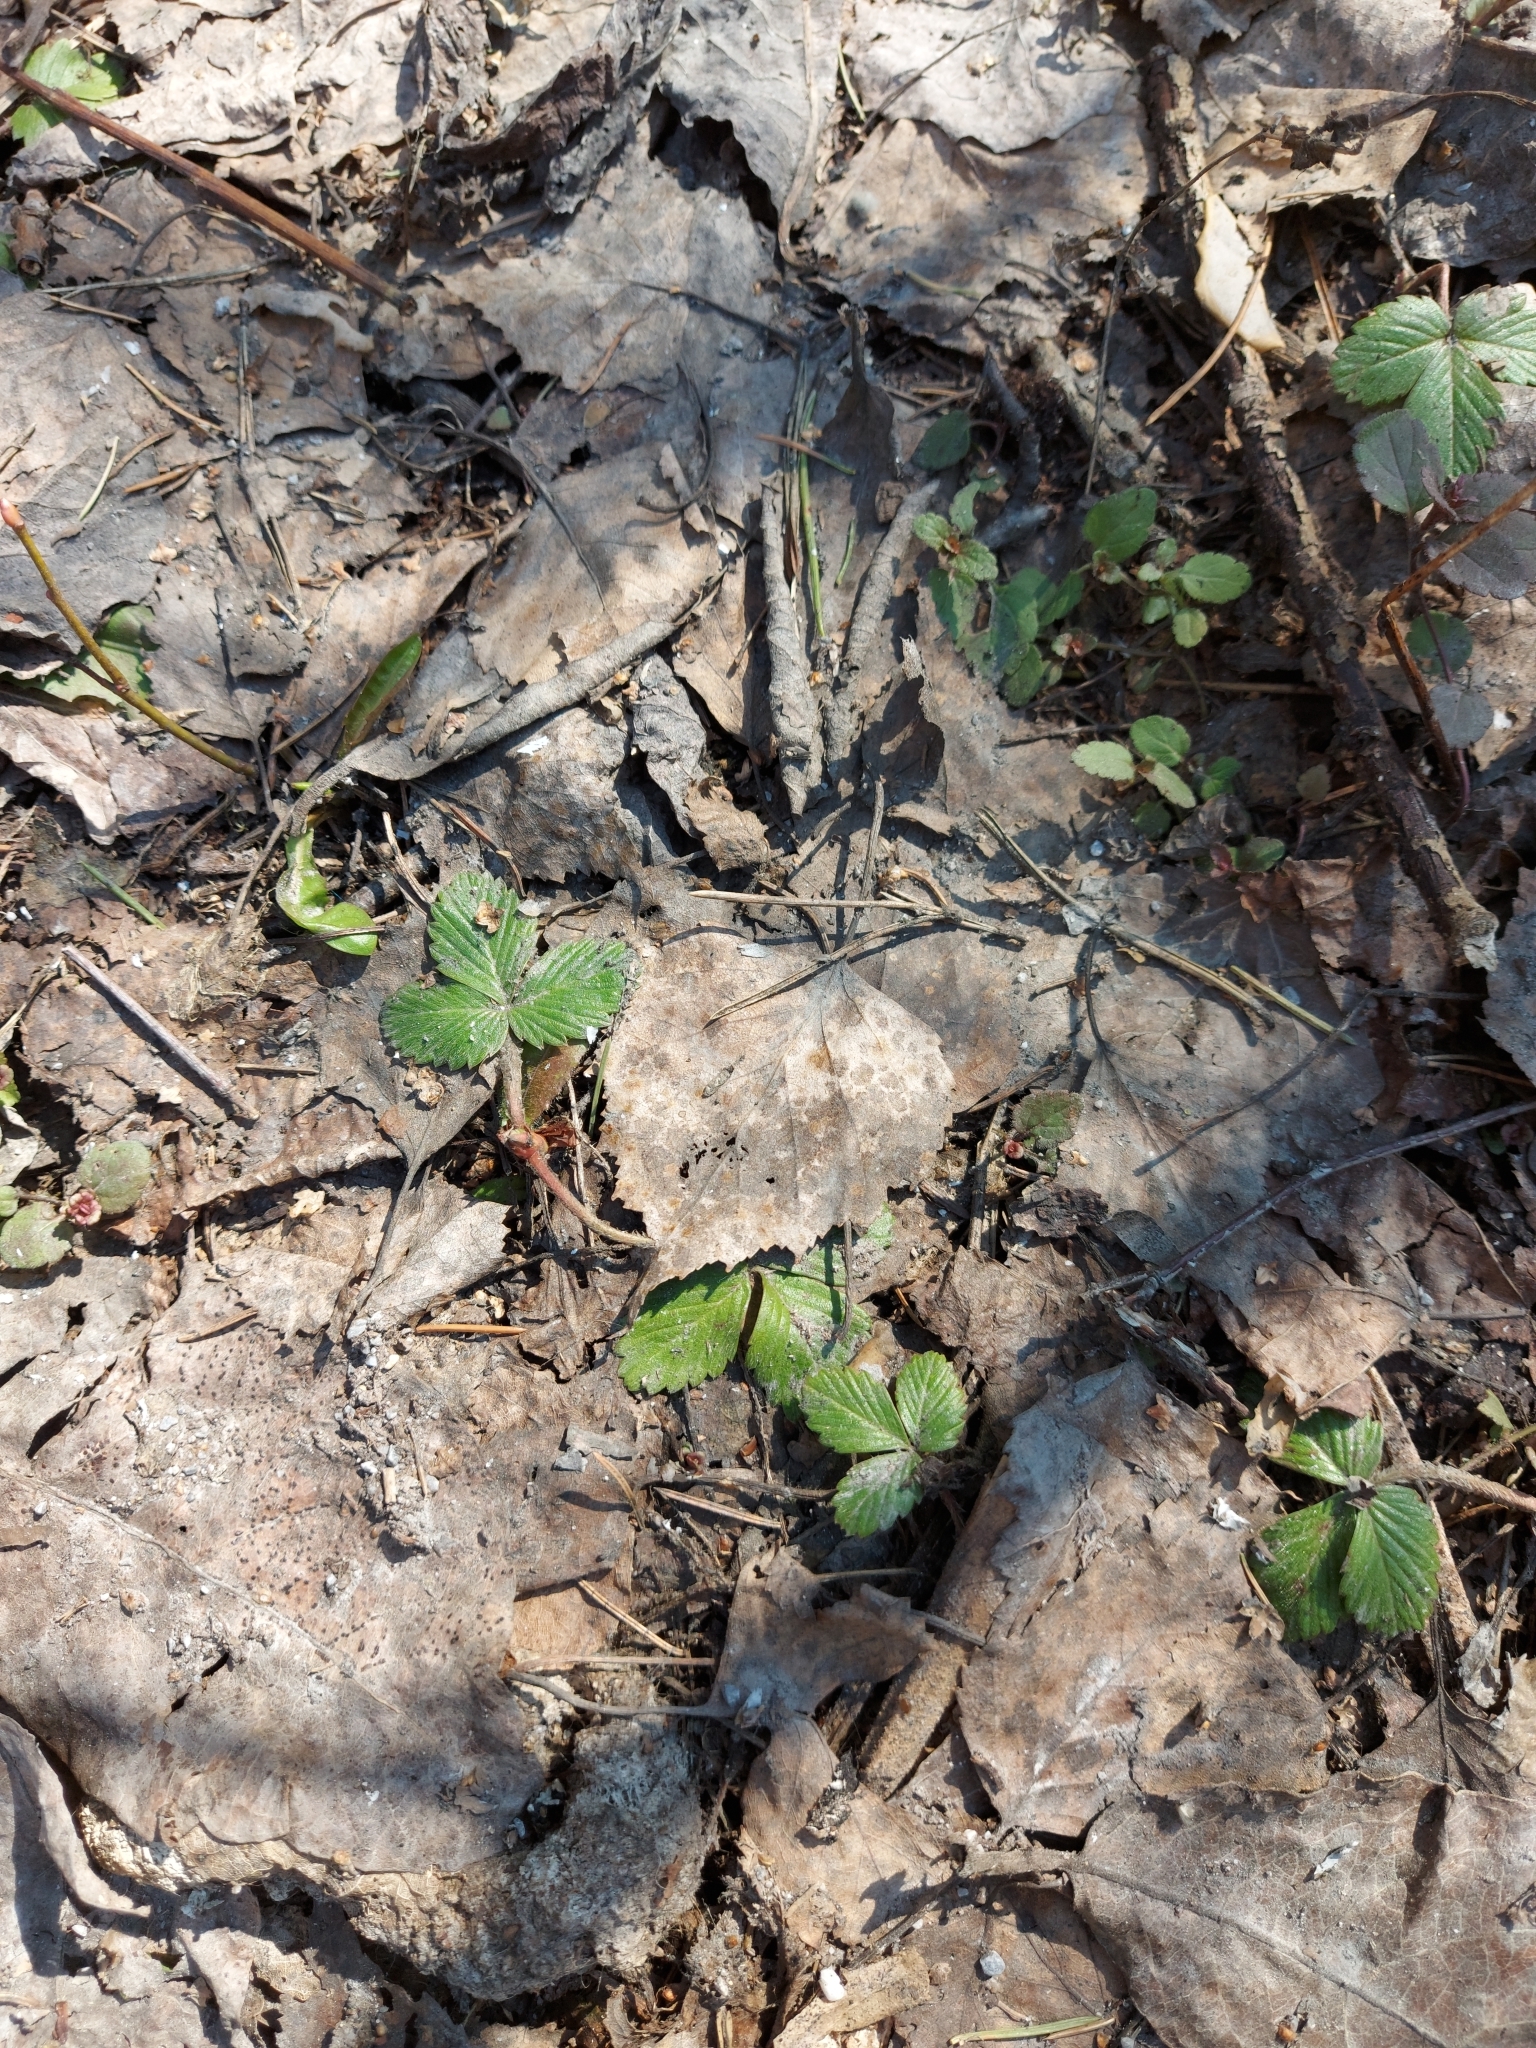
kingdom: Plantae
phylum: Tracheophyta
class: Magnoliopsida
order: Rosales
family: Rosaceae
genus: Fragaria
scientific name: Fragaria vesca
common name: Wild strawberry
